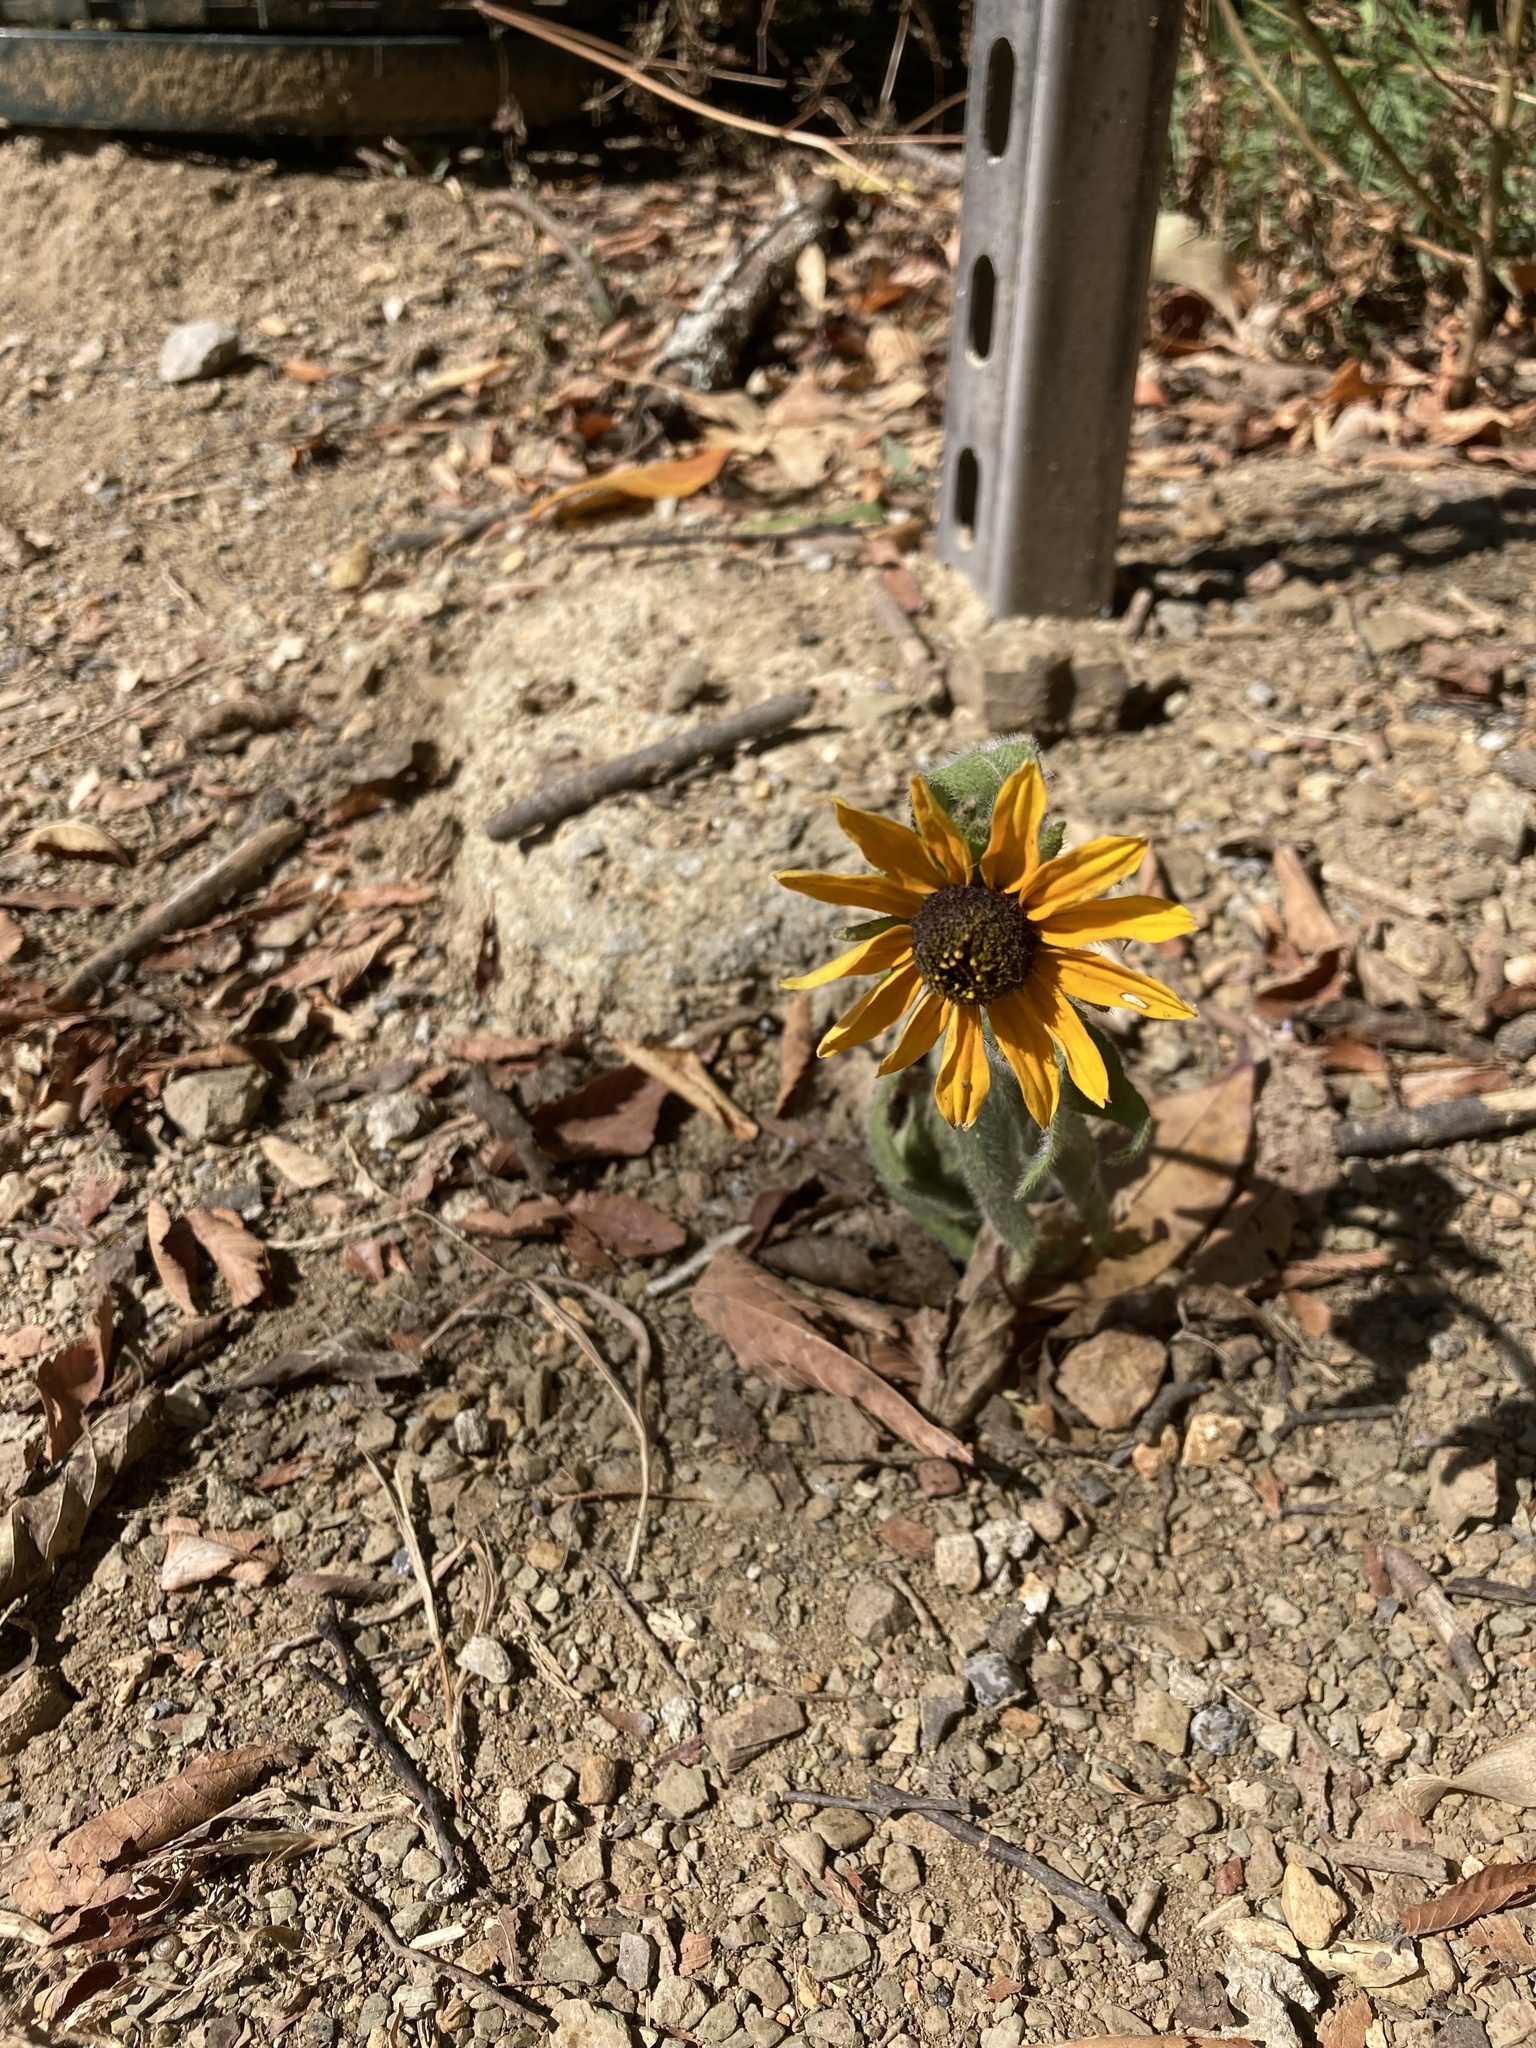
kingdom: Plantae
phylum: Tracheophyta
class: Magnoliopsida
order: Asterales
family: Asteraceae
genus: Rudbeckia
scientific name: Rudbeckia hirta
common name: Black-eyed-susan
